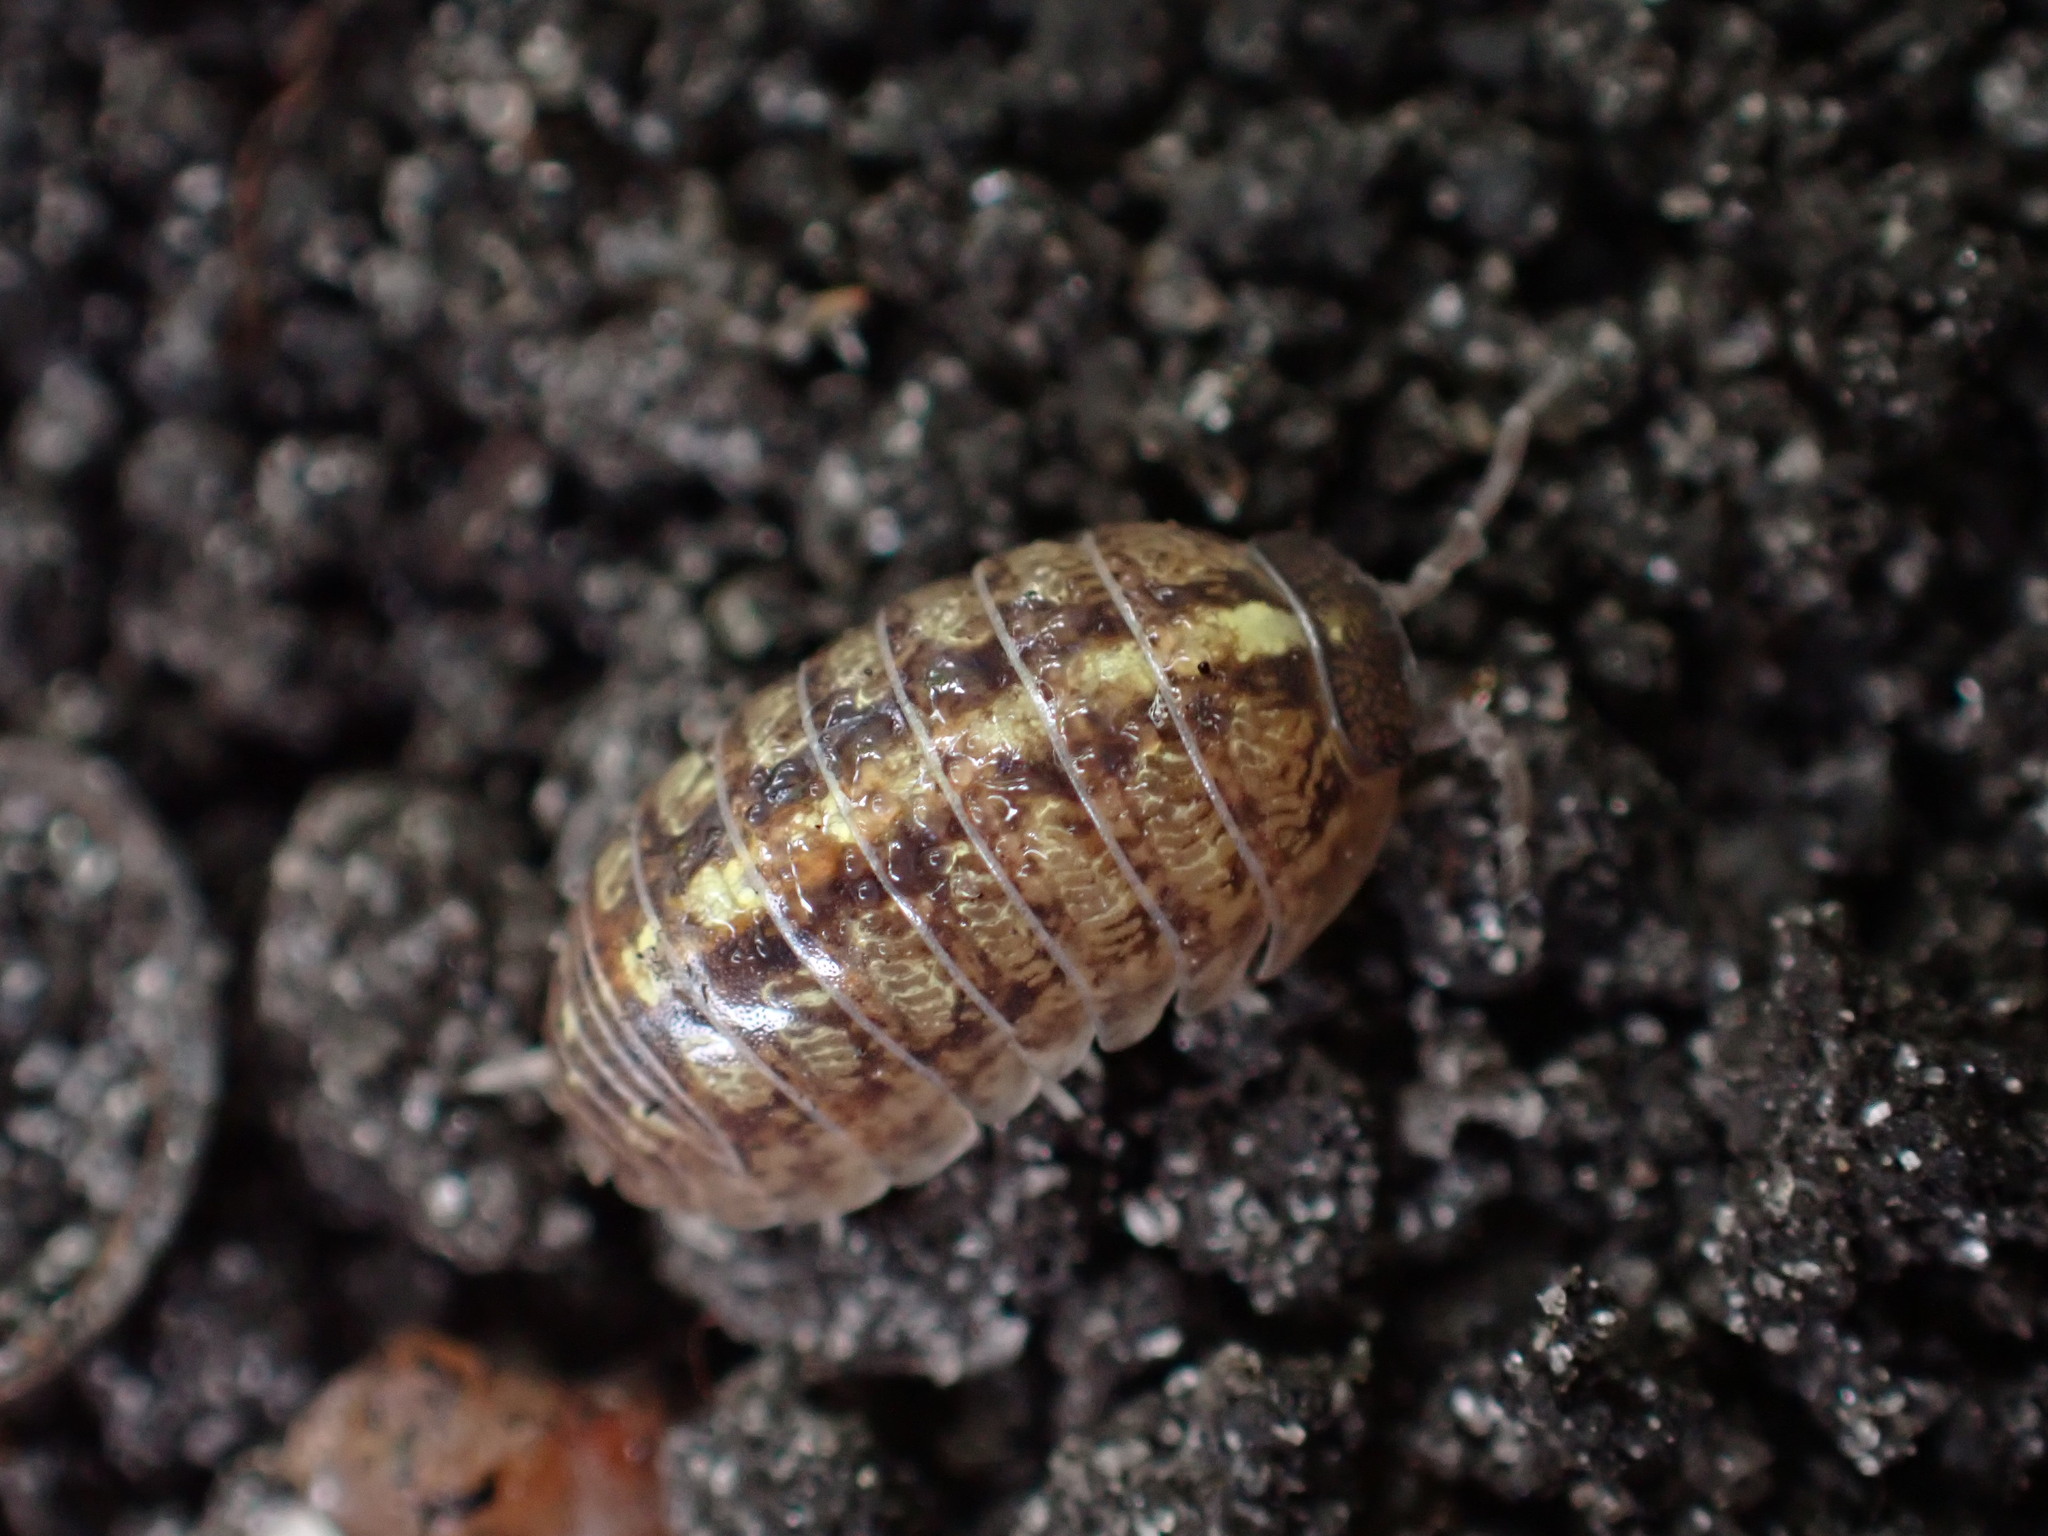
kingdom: Animalia
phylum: Arthropoda
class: Malacostraca
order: Isopoda
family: Armadillidiidae
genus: Armadillidium
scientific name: Armadillidium vulgare
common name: Common pill woodlouse
